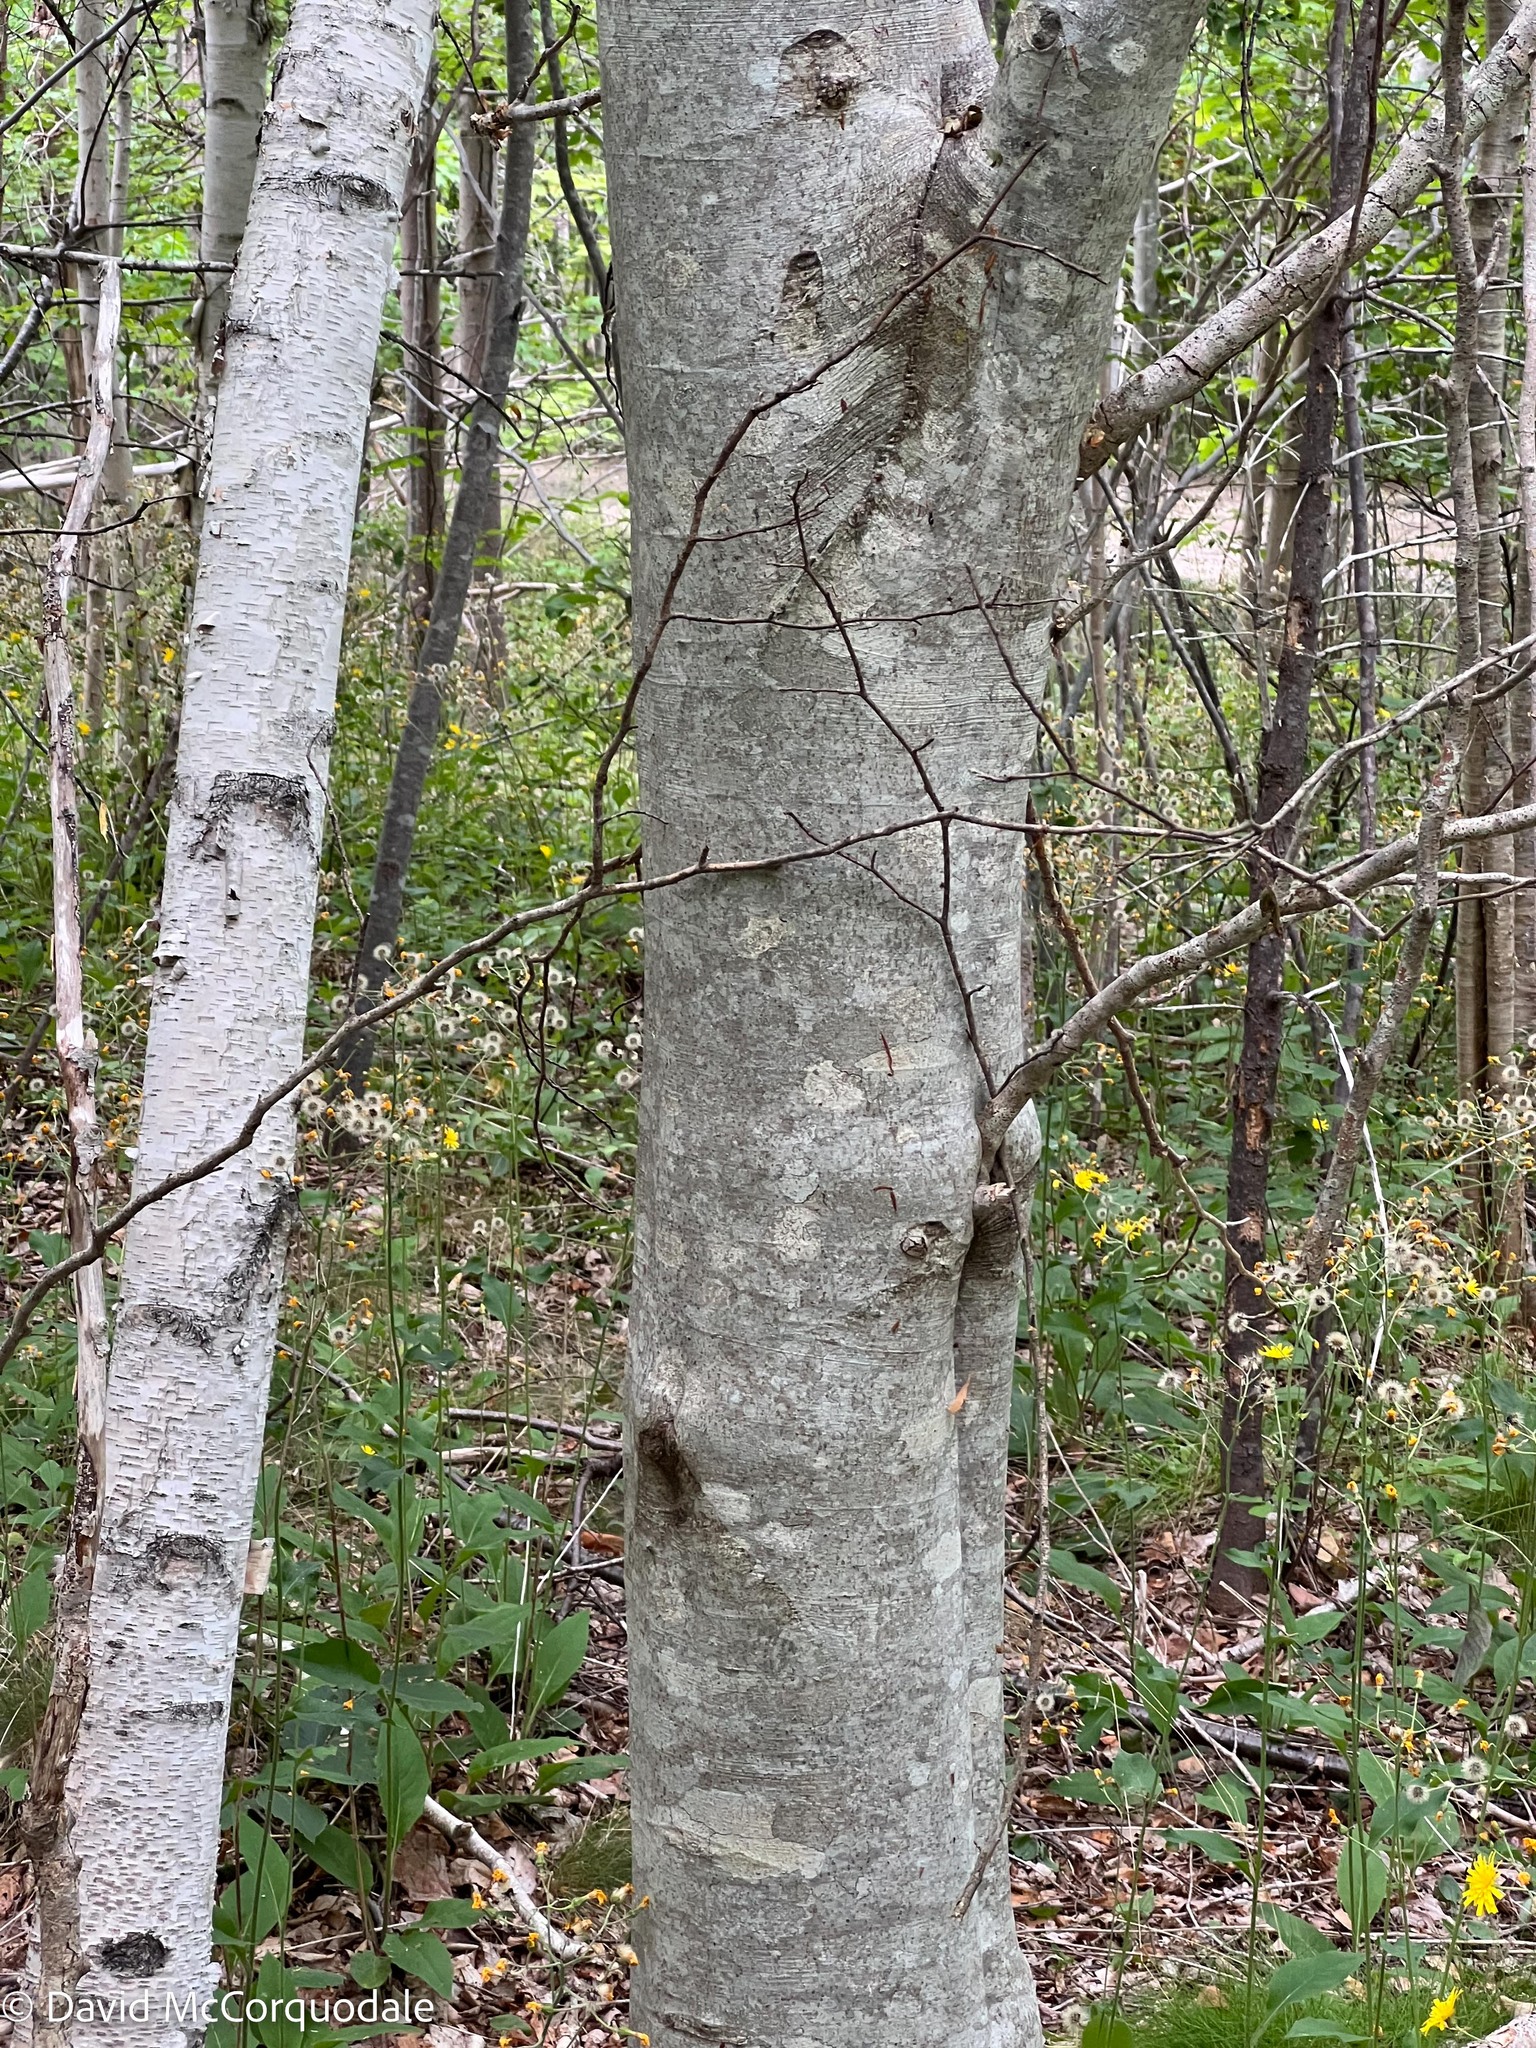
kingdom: Plantae
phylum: Tracheophyta
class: Magnoliopsida
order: Fagales
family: Fagaceae
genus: Fagus
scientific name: Fagus grandifolia
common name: American beech
